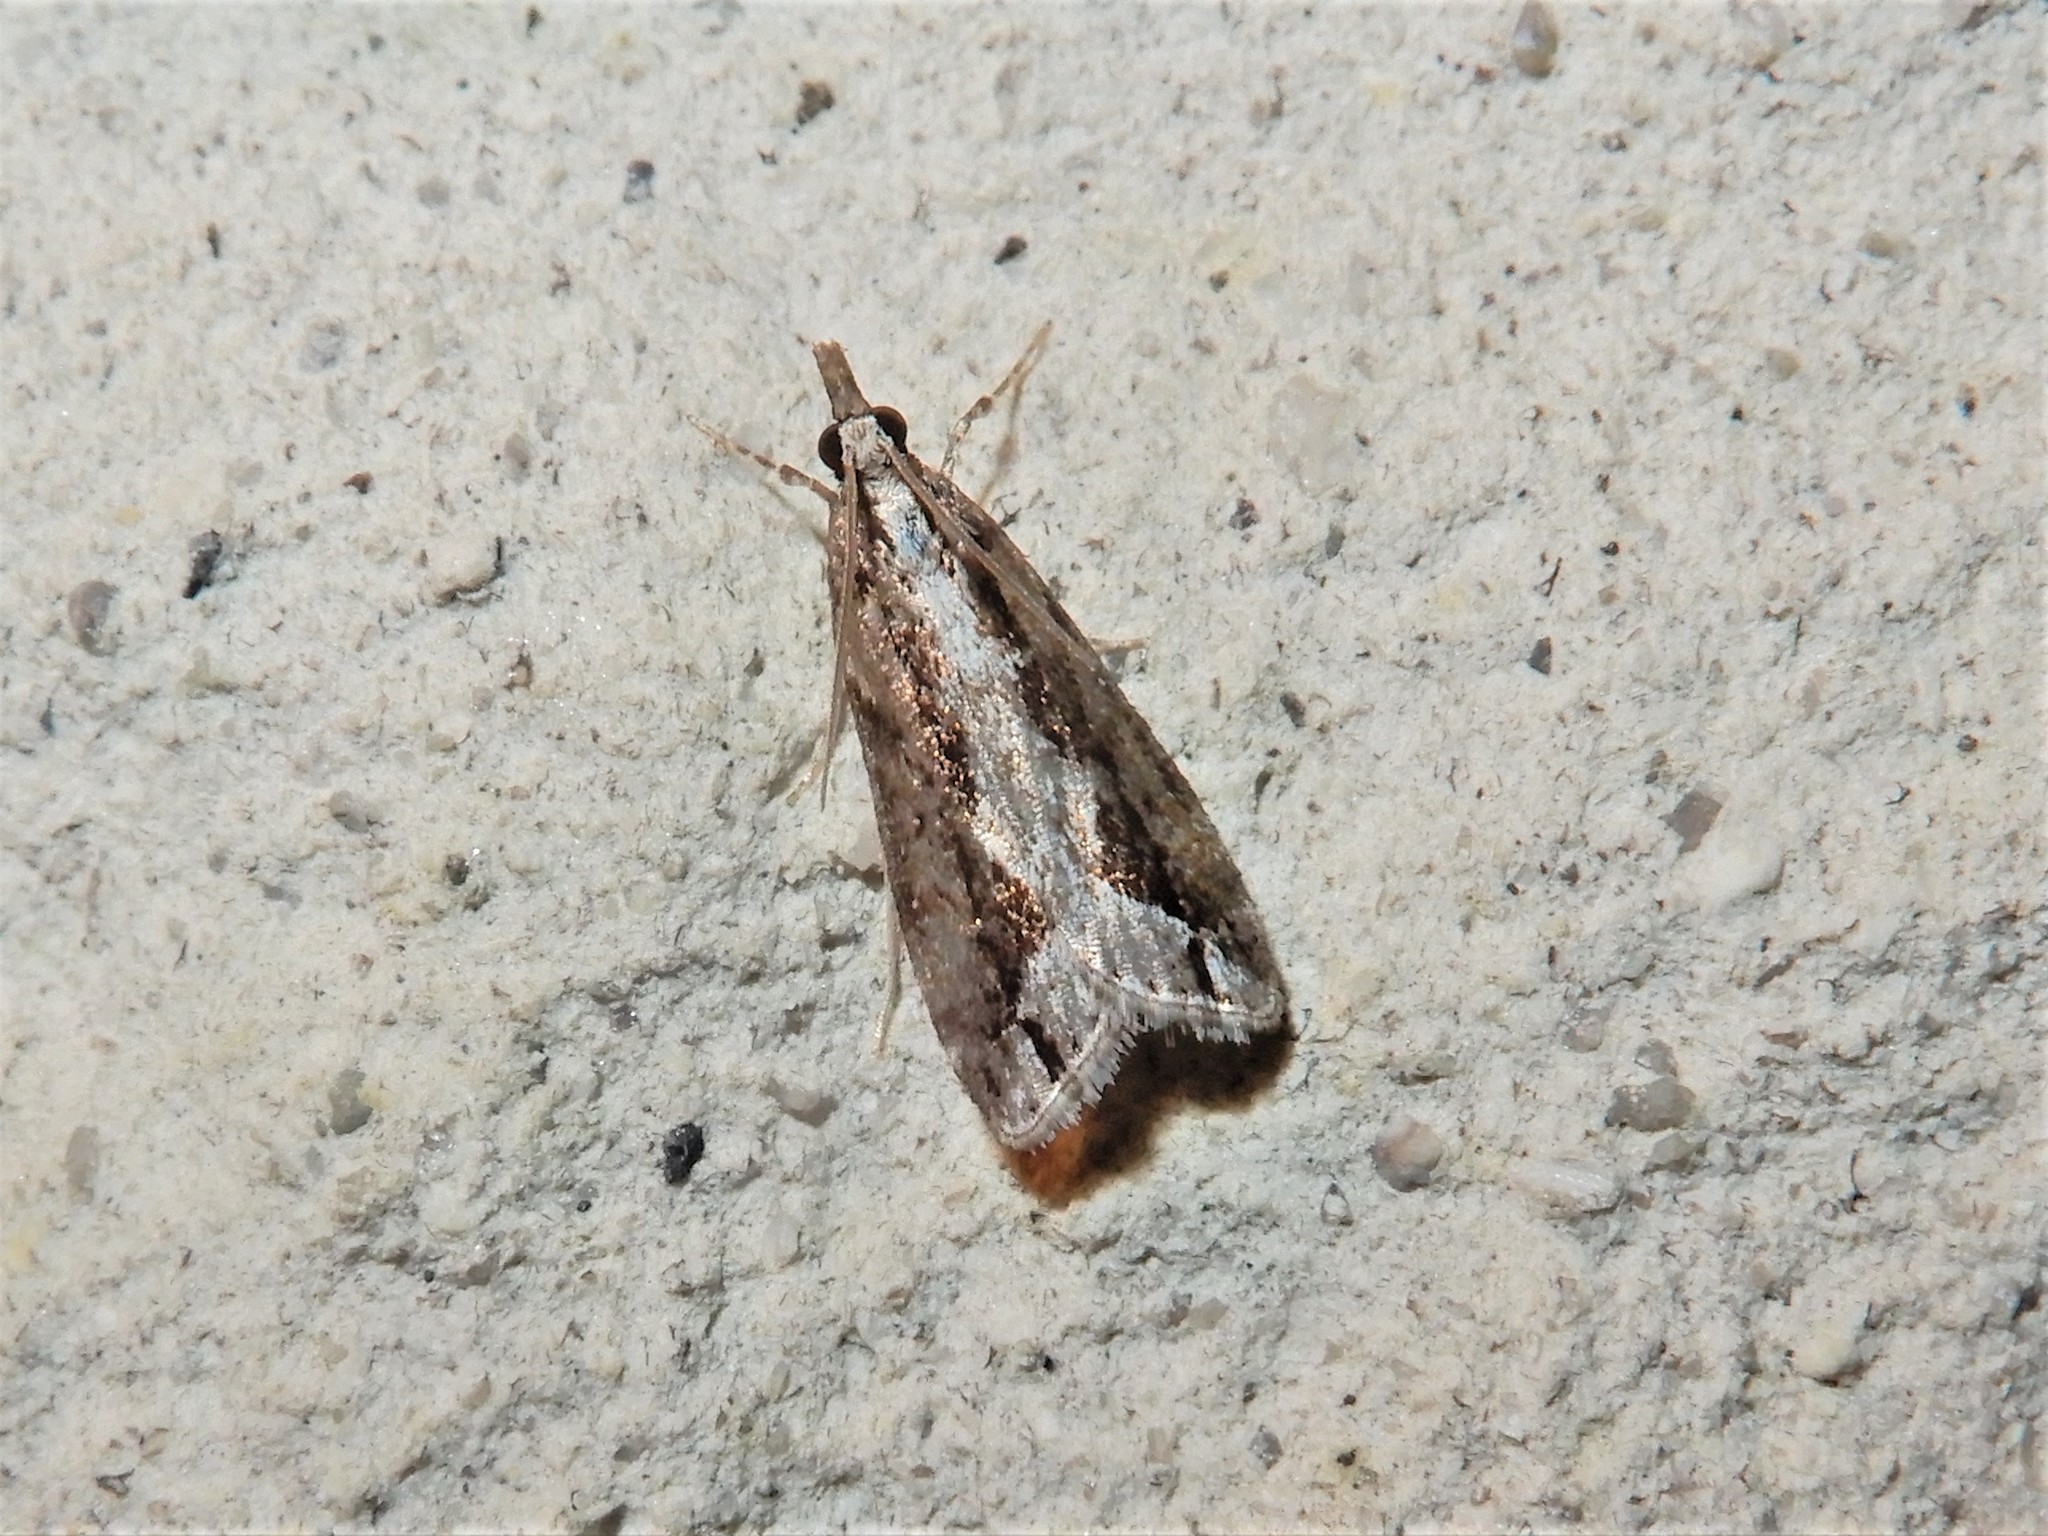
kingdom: Animalia
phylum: Arthropoda
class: Insecta
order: Lepidoptera
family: Crambidae
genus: Eudonia
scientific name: Eudonia steropaea
